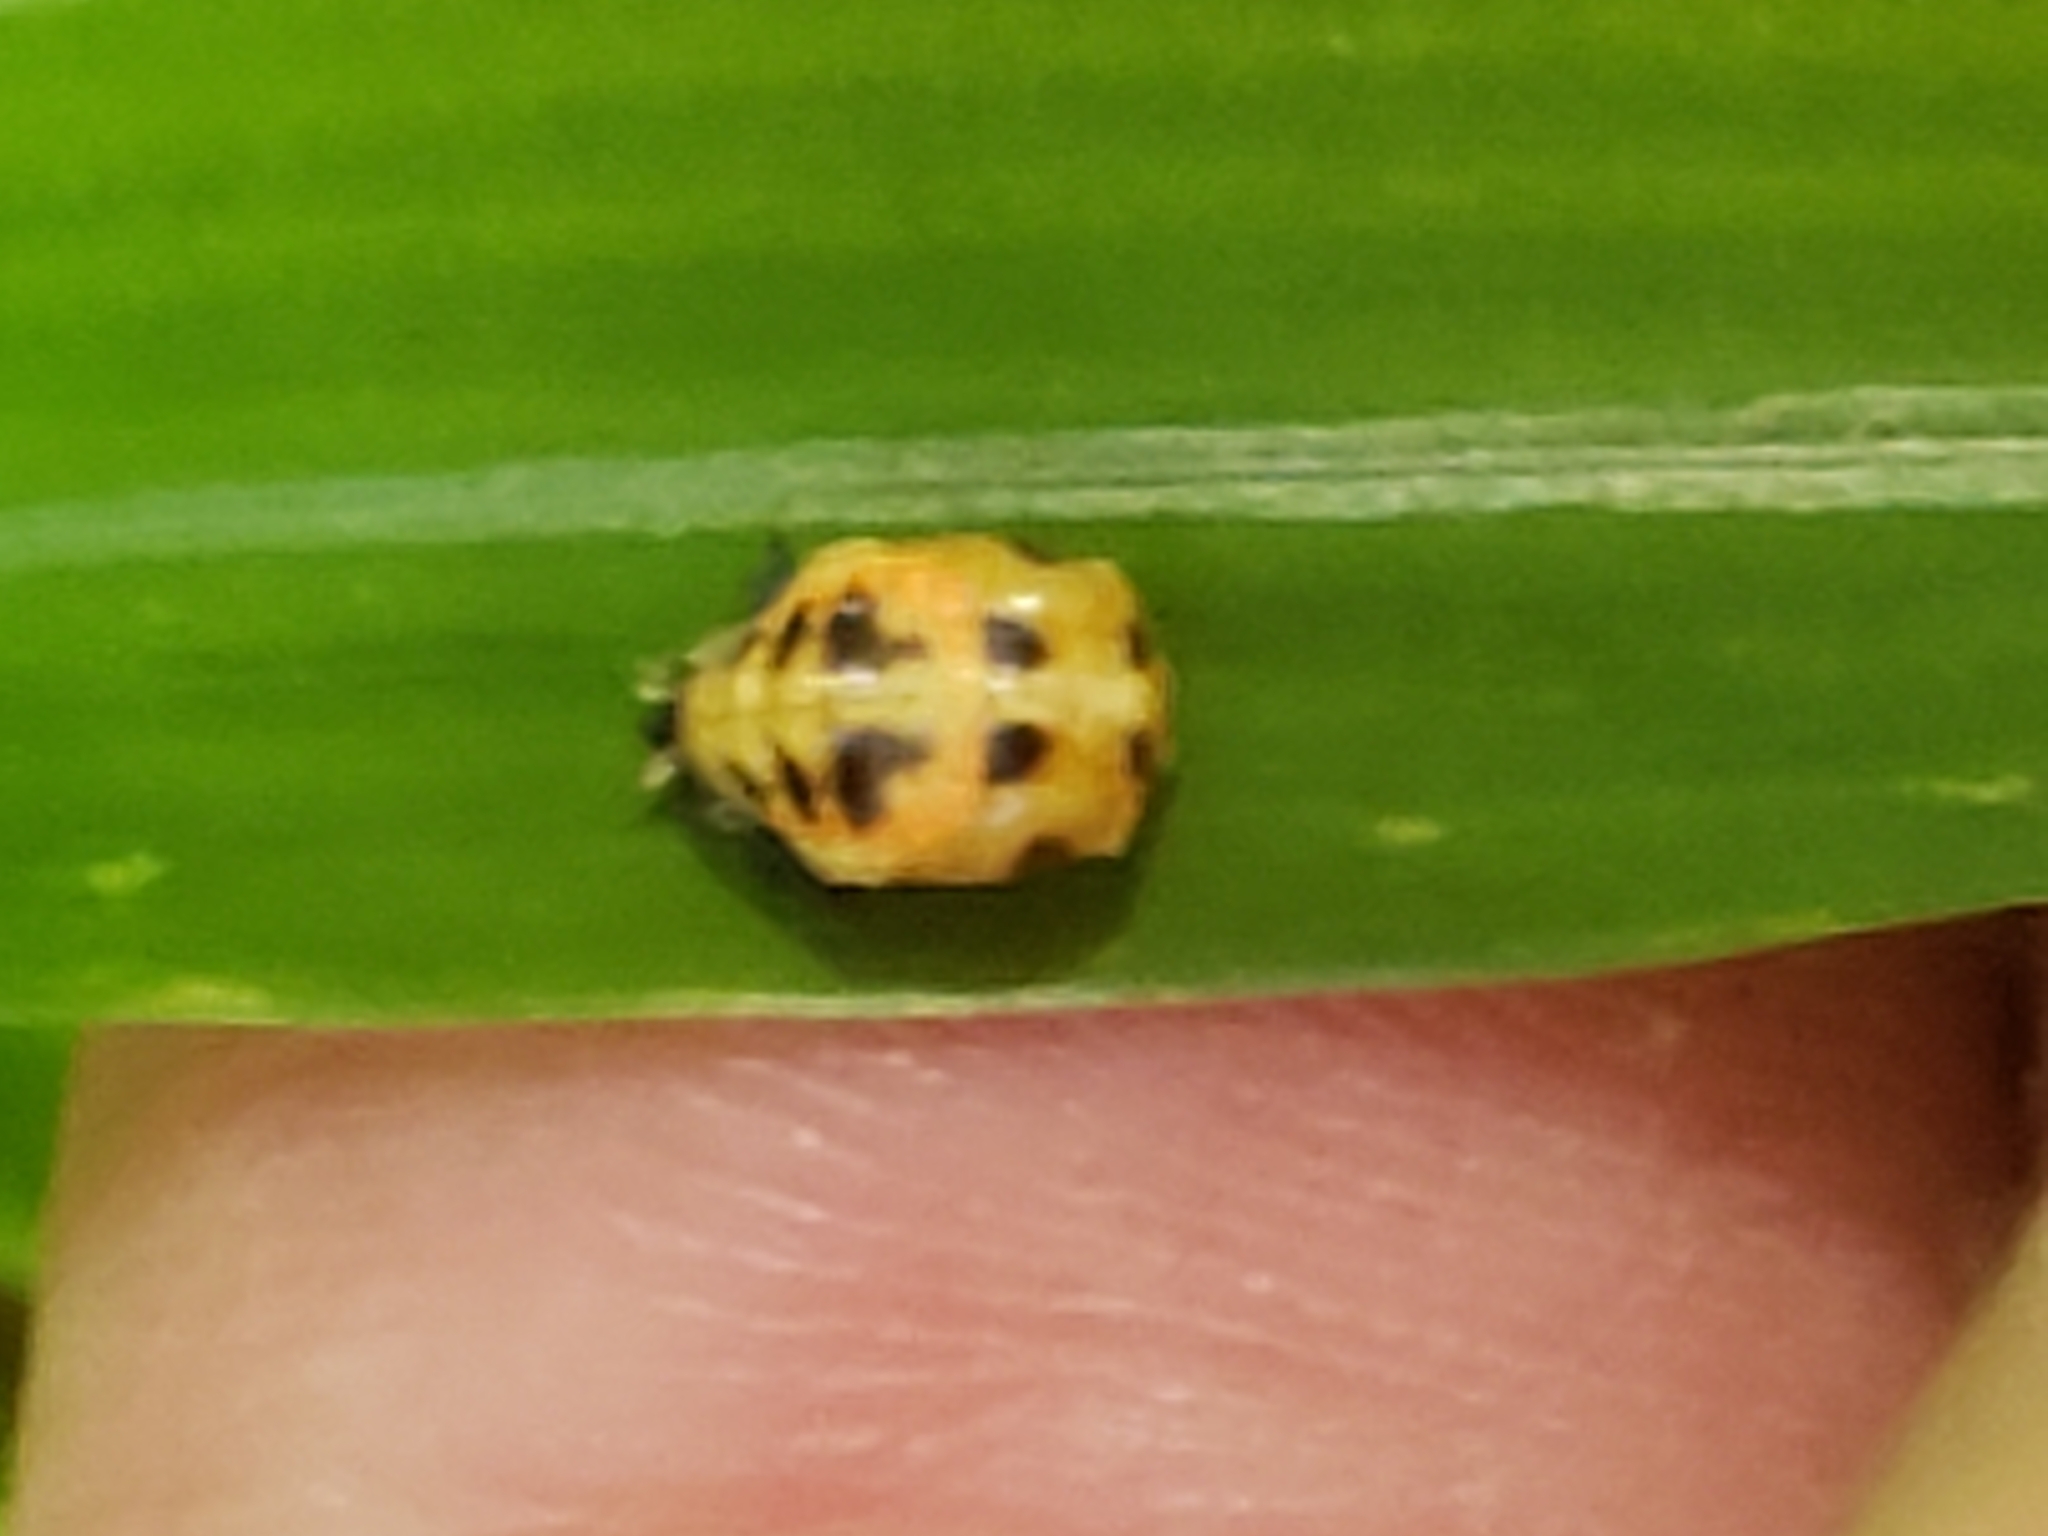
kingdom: Animalia
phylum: Arthropoda
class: Insecta
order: Coleoptera
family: Coccinellidae
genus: Harmonia
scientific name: Harmonia axyridis
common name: Harlequin ladybird
